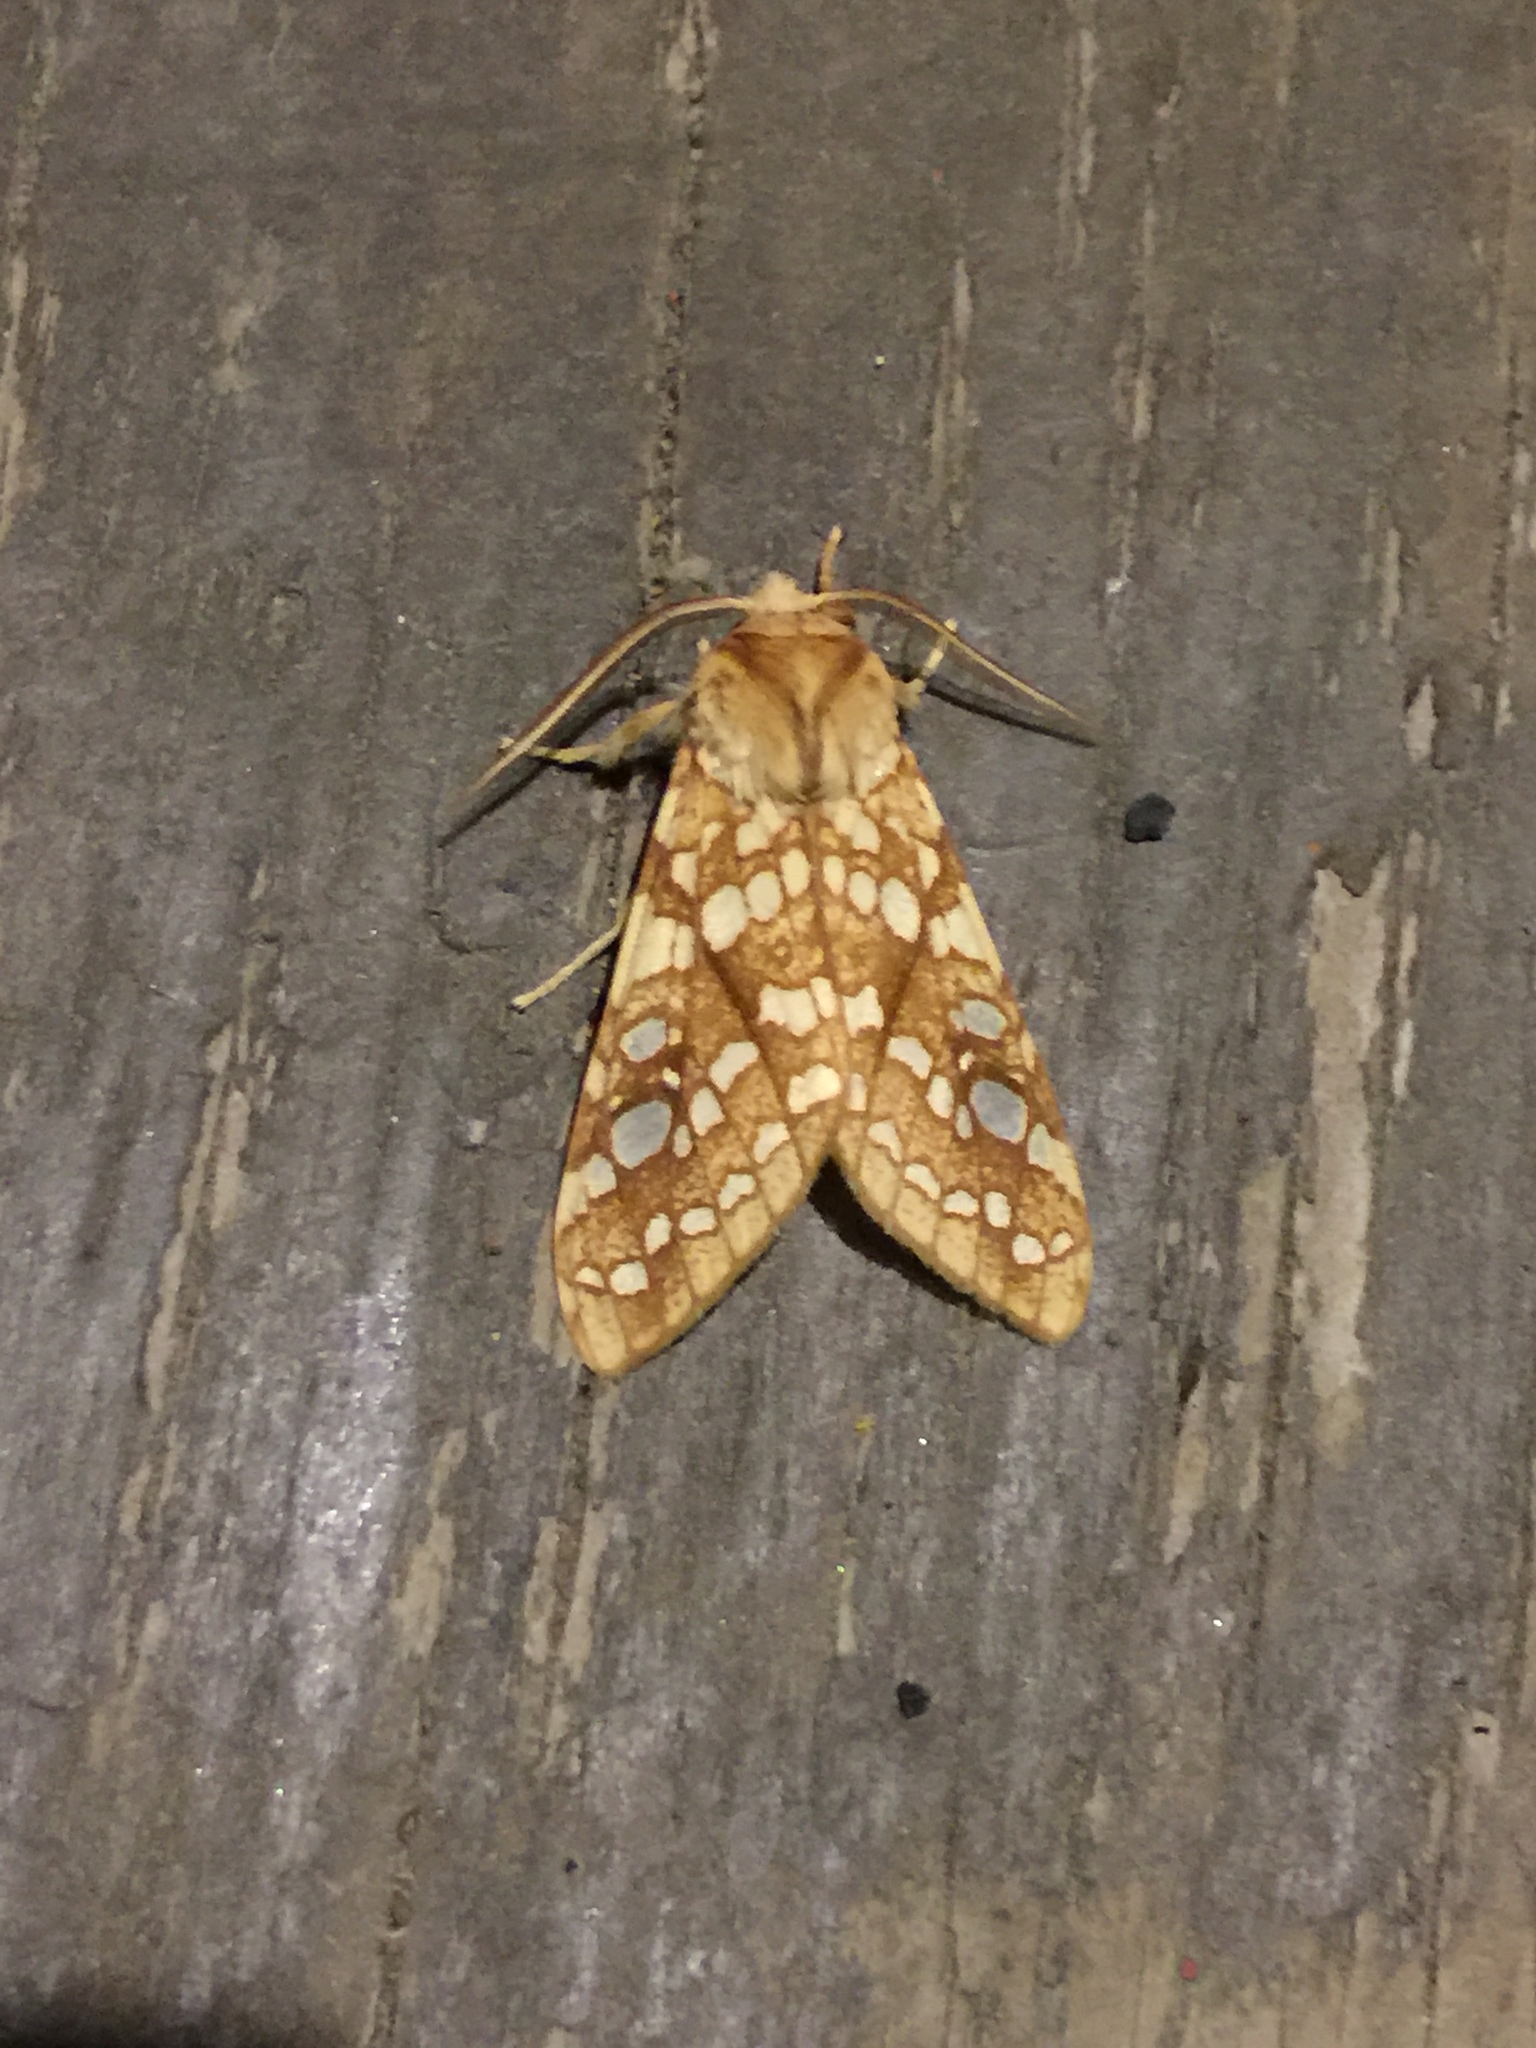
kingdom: Animalia
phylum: Arthropoda
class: Insecta
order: Lepidoptera
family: Erebidae
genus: Lophocampa
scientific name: Lophocampa caryae
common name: Hickory tussock moth
